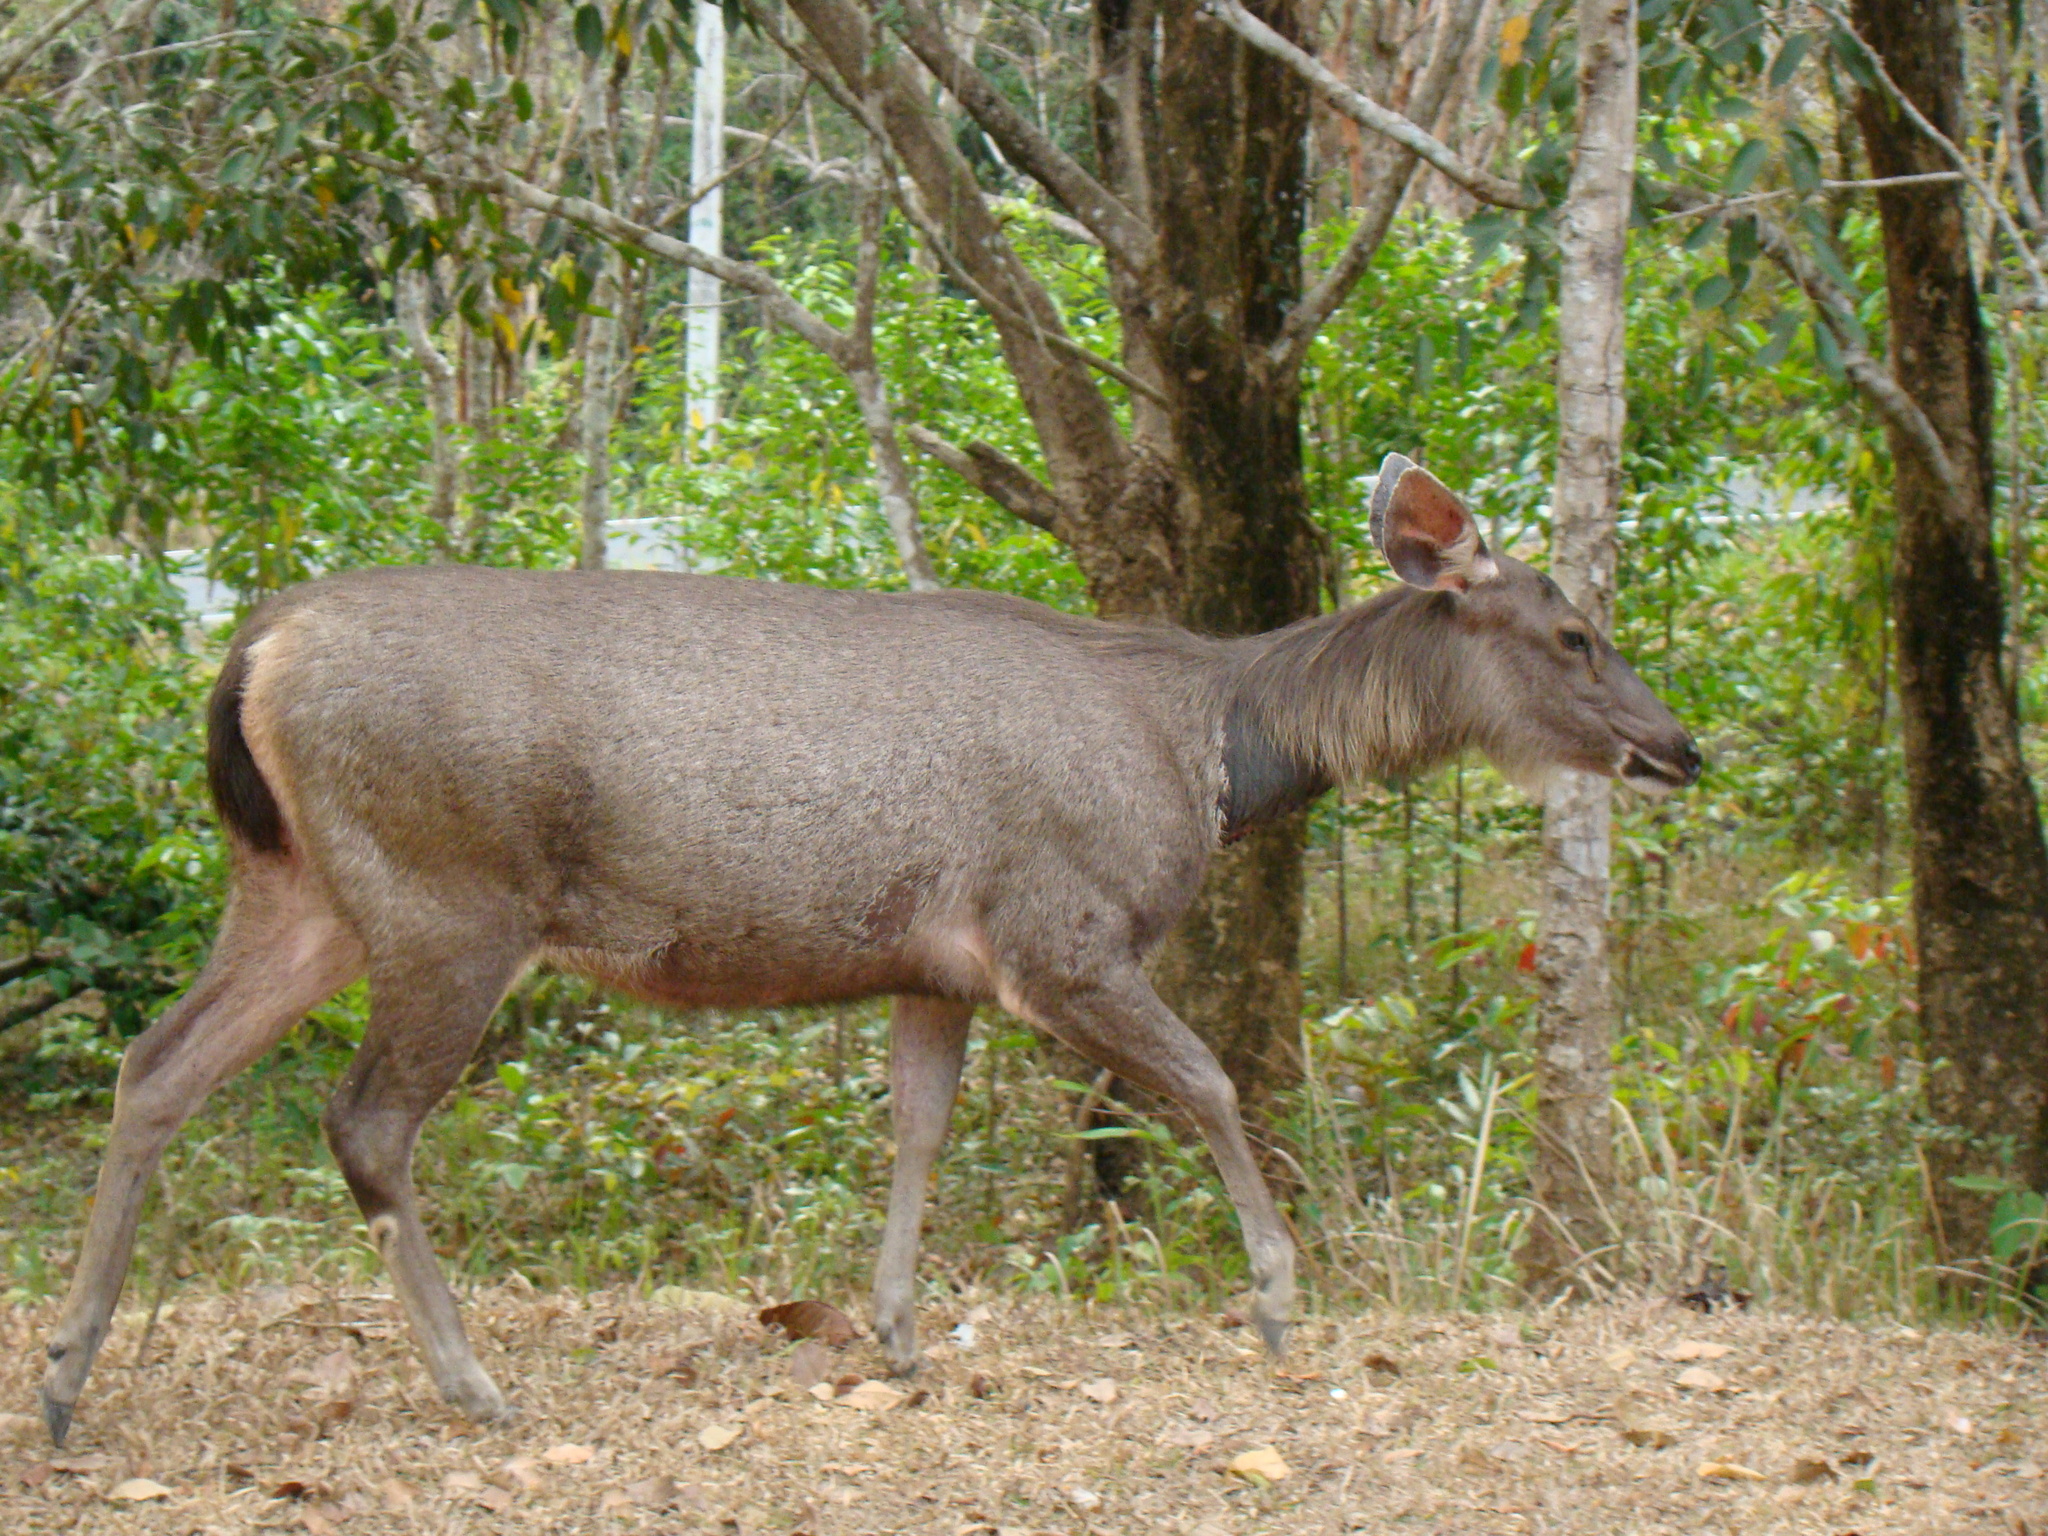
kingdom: Animalia
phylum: Chordata
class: Mammalia
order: Artiodactyla
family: Cervidae
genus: Rusa
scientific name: Rusa unicolor
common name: Sambar
